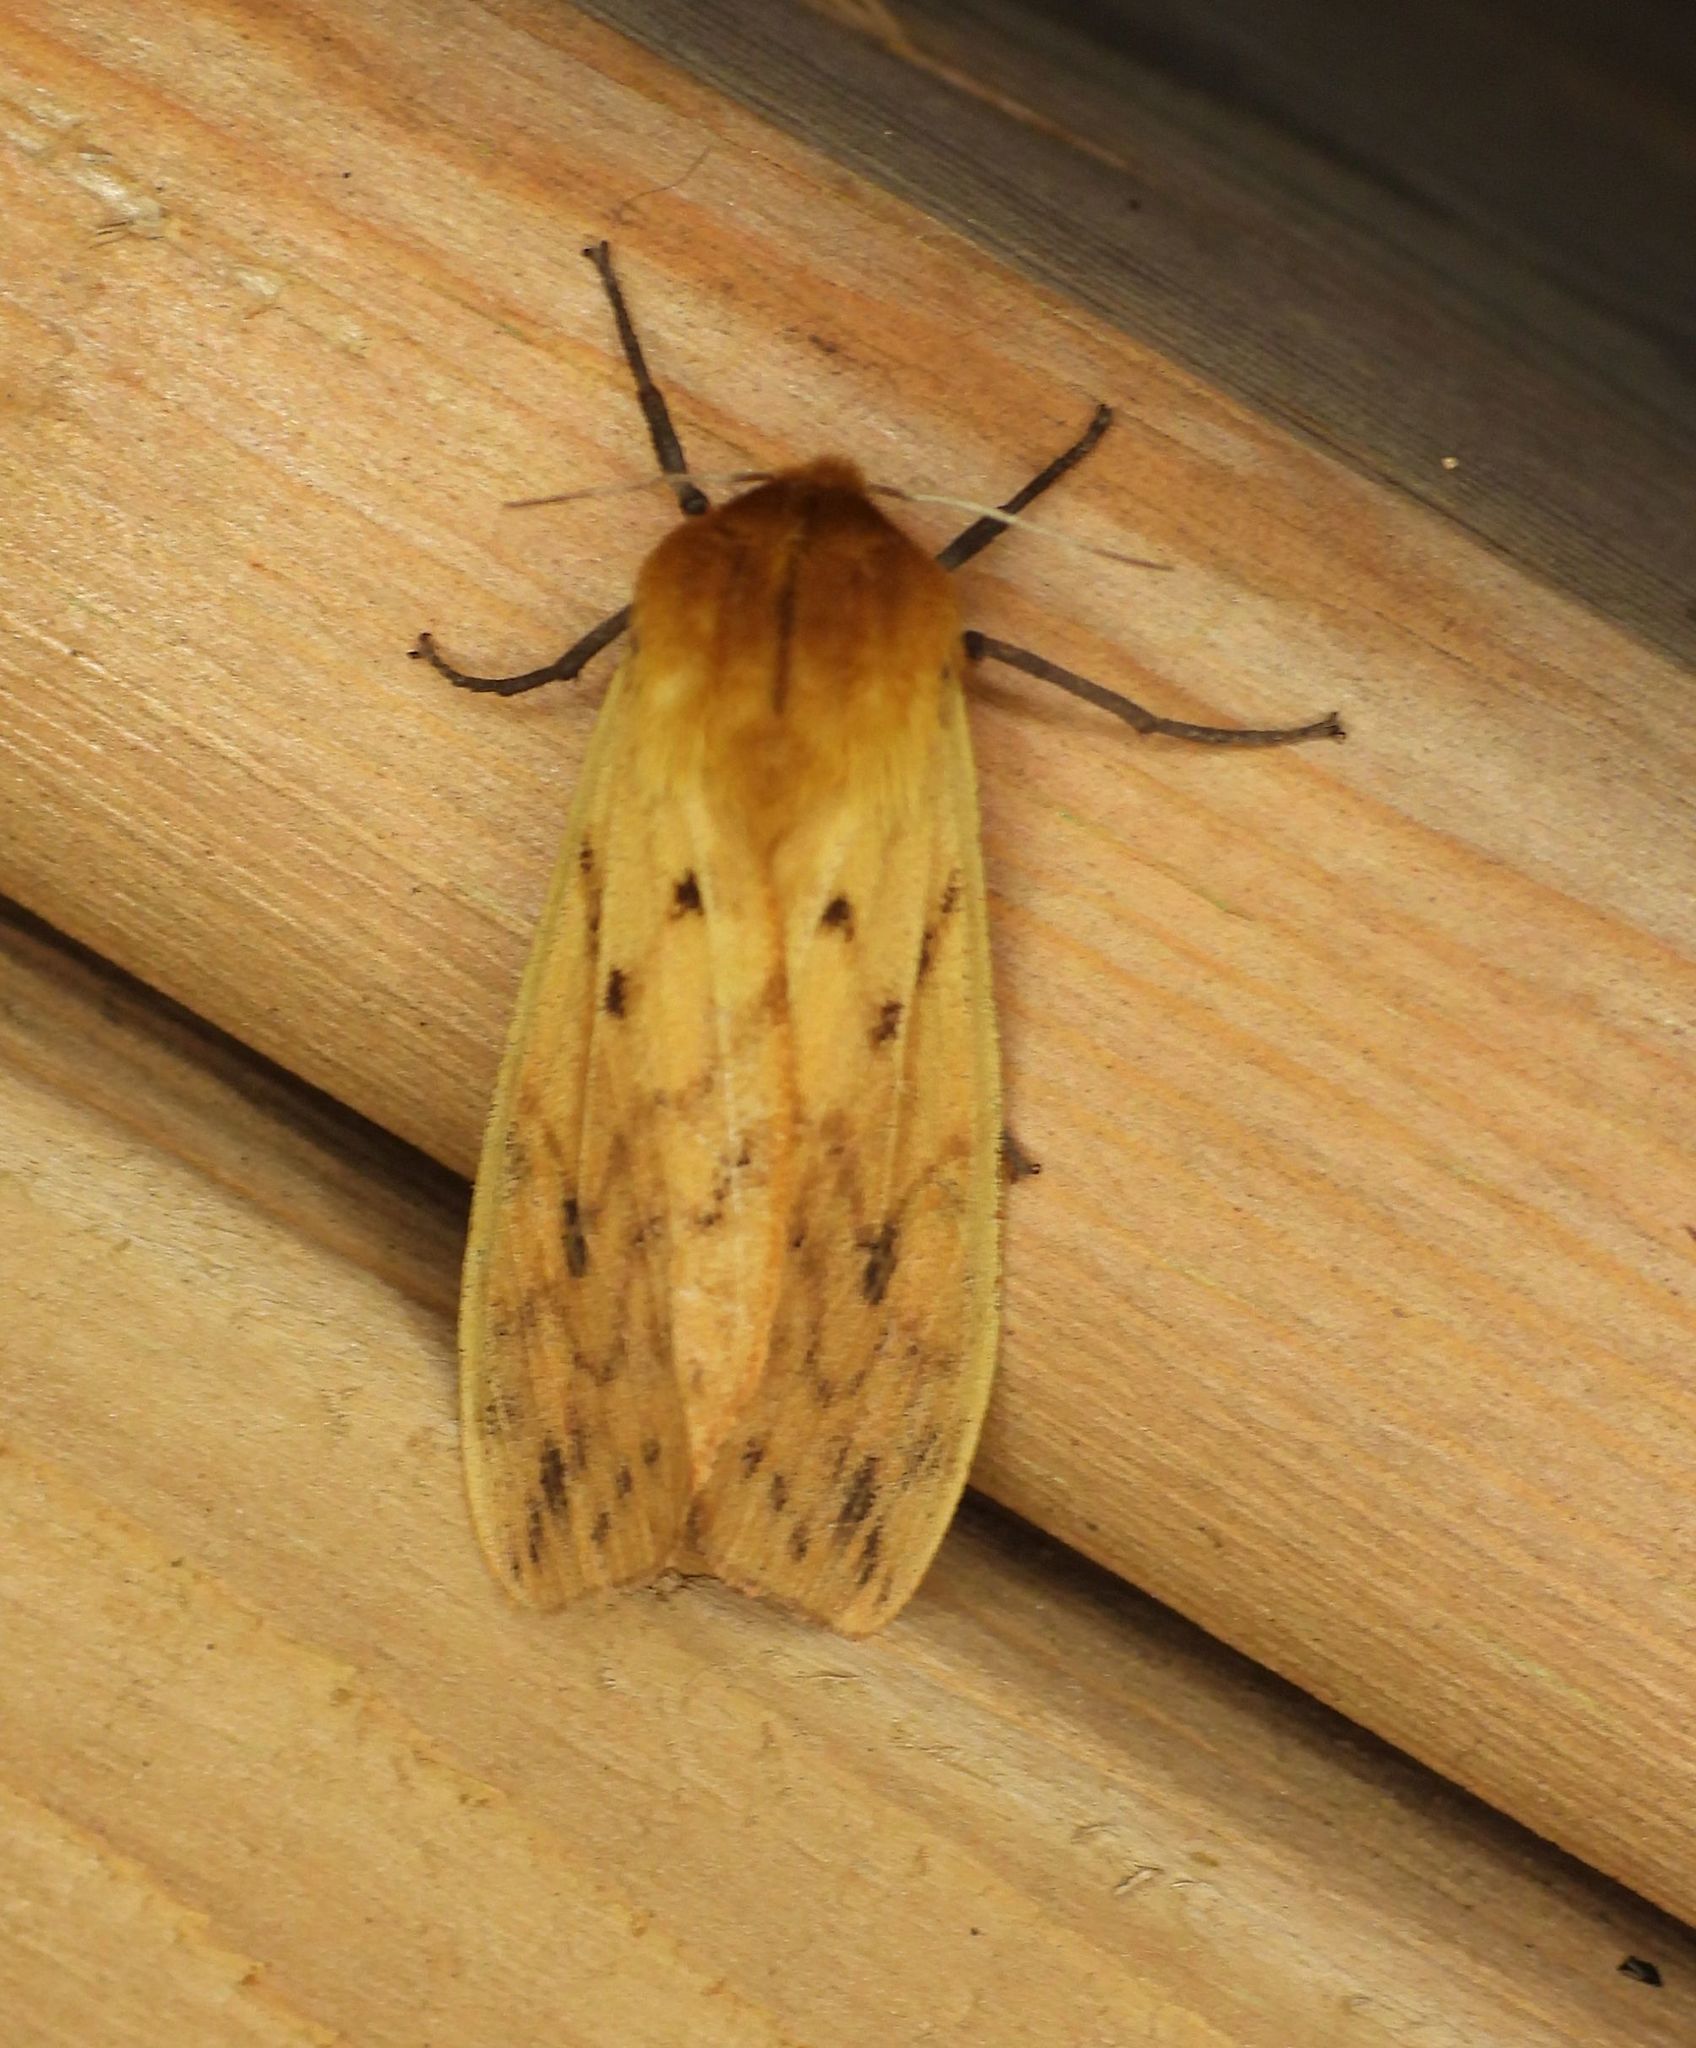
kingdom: Animalia
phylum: Arthropoda
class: Insecta
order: Lepidoptera
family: Erebidae
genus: Pyrrharctia
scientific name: Pyrrharctia isabella
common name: Isabella tiger moth
